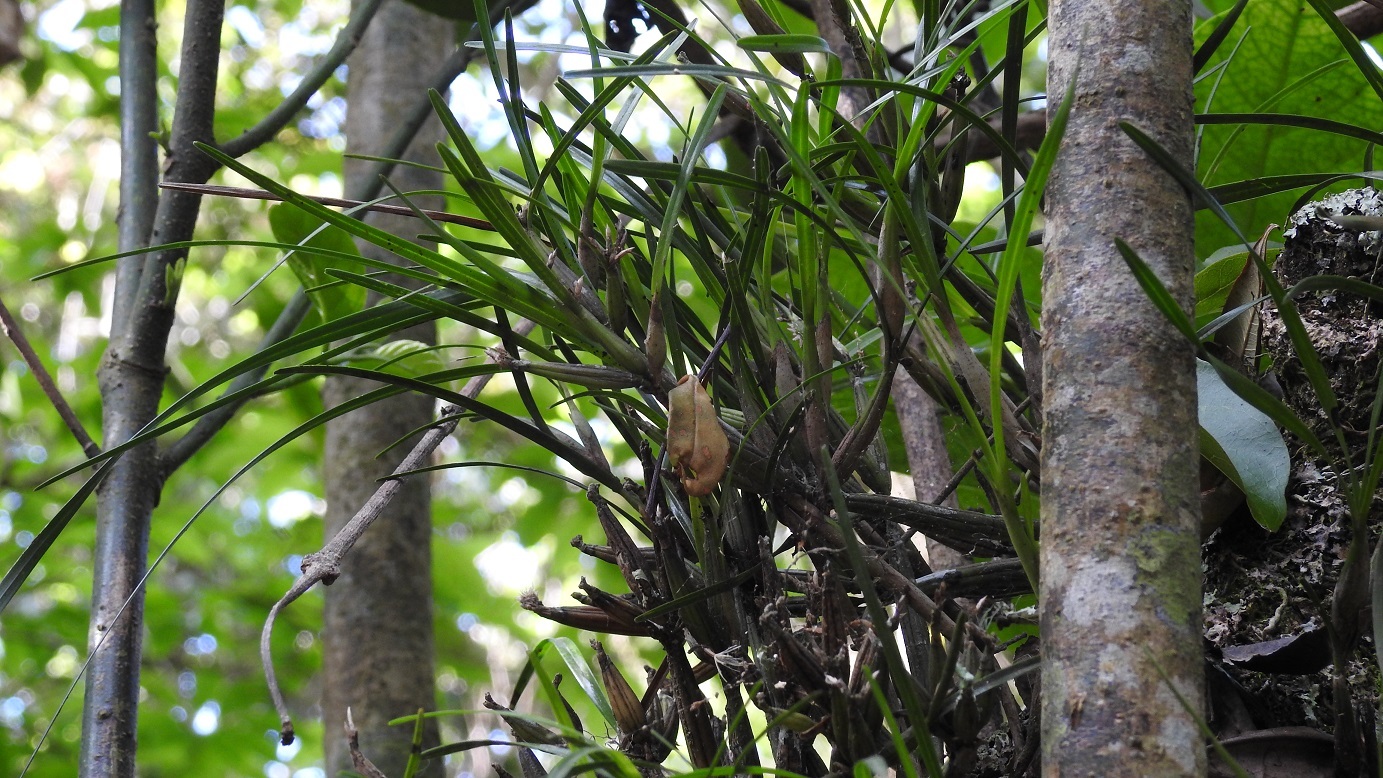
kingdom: Plantae
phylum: Tracheophyta
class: Liliopsida
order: Asparagales
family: Orchidaceae
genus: Scaphyglottis
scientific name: Scaphyglottis fasciculata
